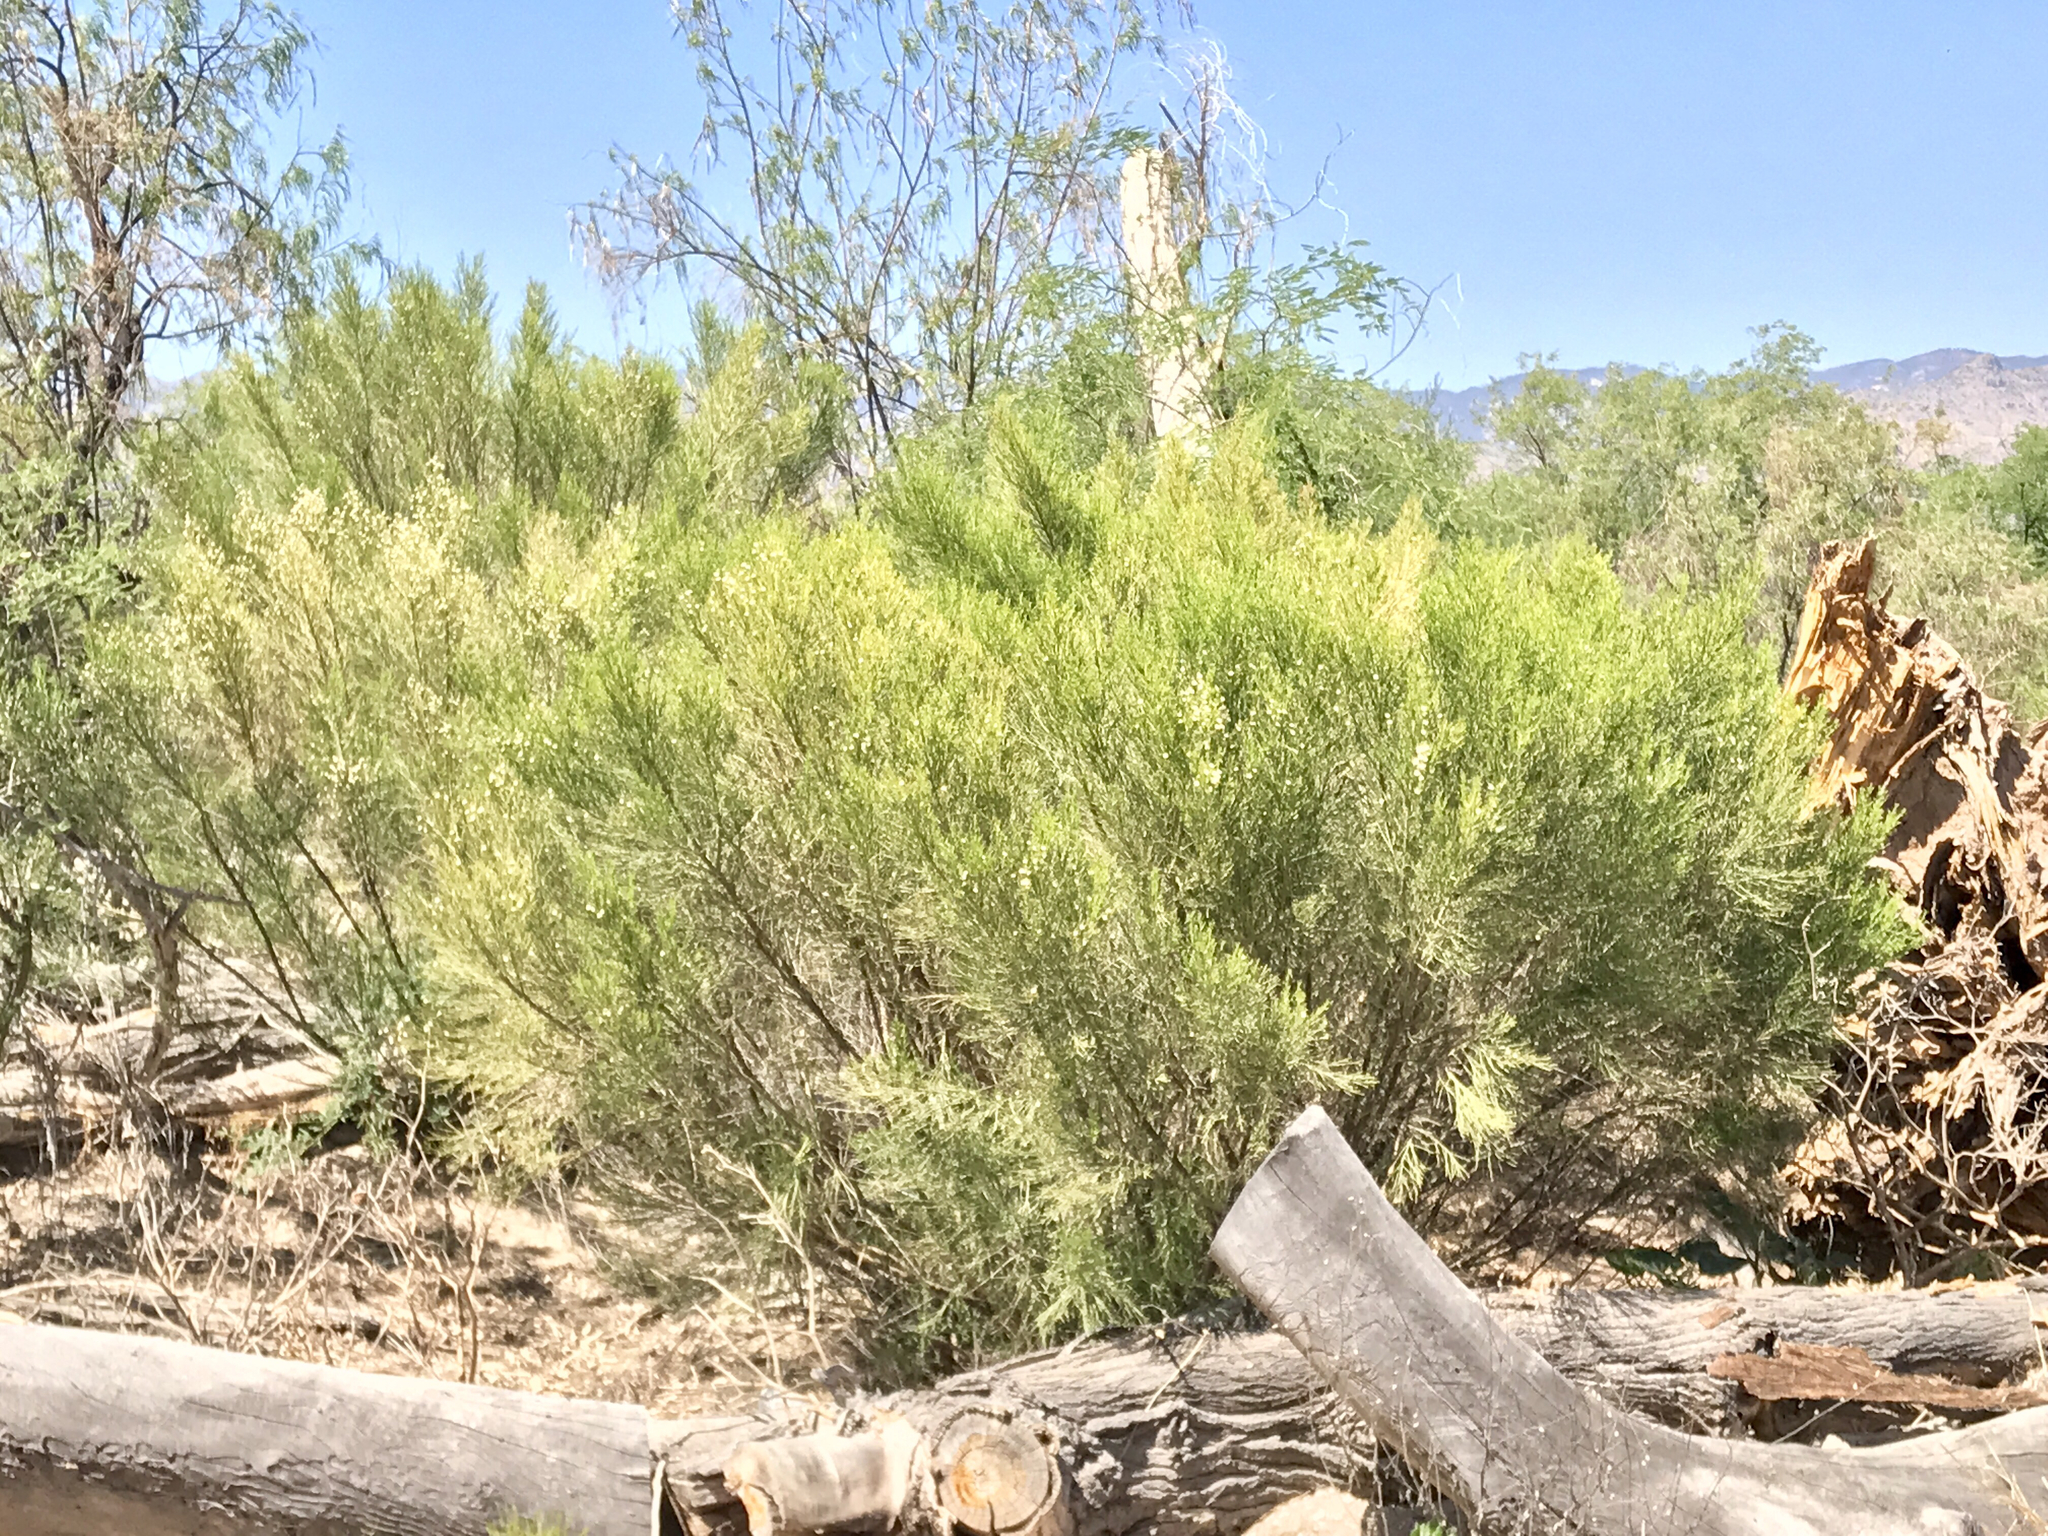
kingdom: Plantae
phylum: Tracheophyta
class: Magnoliopsida
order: Asterales
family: Asteraceae
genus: Baccharis
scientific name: Baccharis sarothroides
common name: Desert-broom
